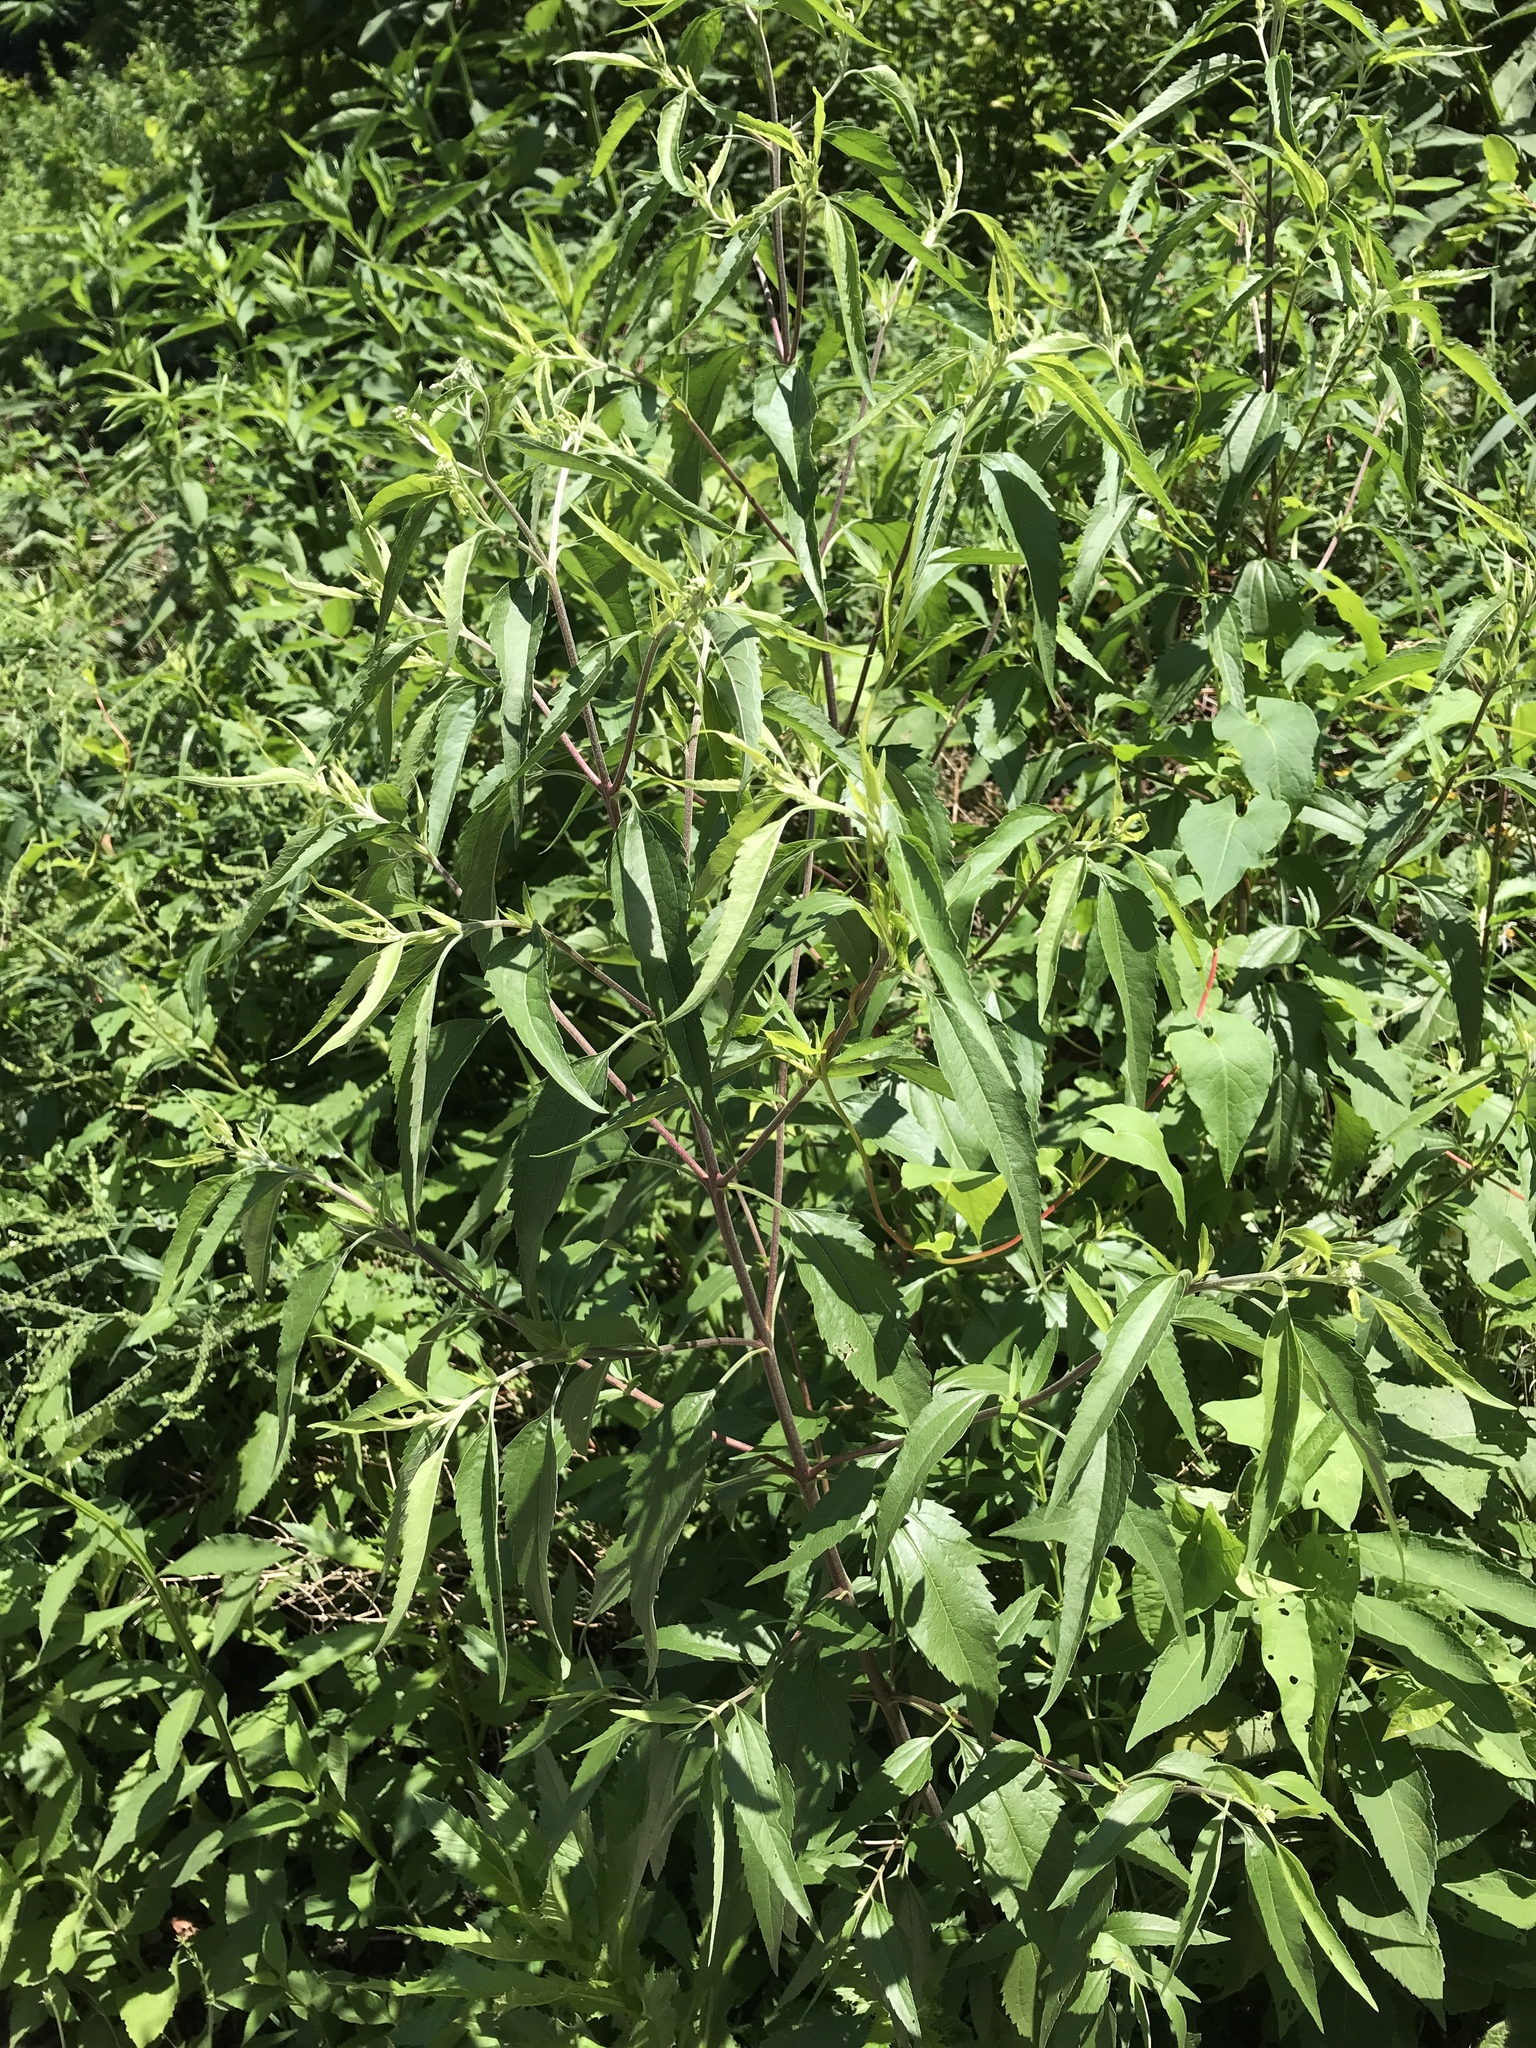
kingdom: Plantae
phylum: Tracheophyta
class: Magnoliopsida
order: Asterales
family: Asteraceae
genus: Eupatorium
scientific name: Eupatorium serotinum
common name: Late boneset
